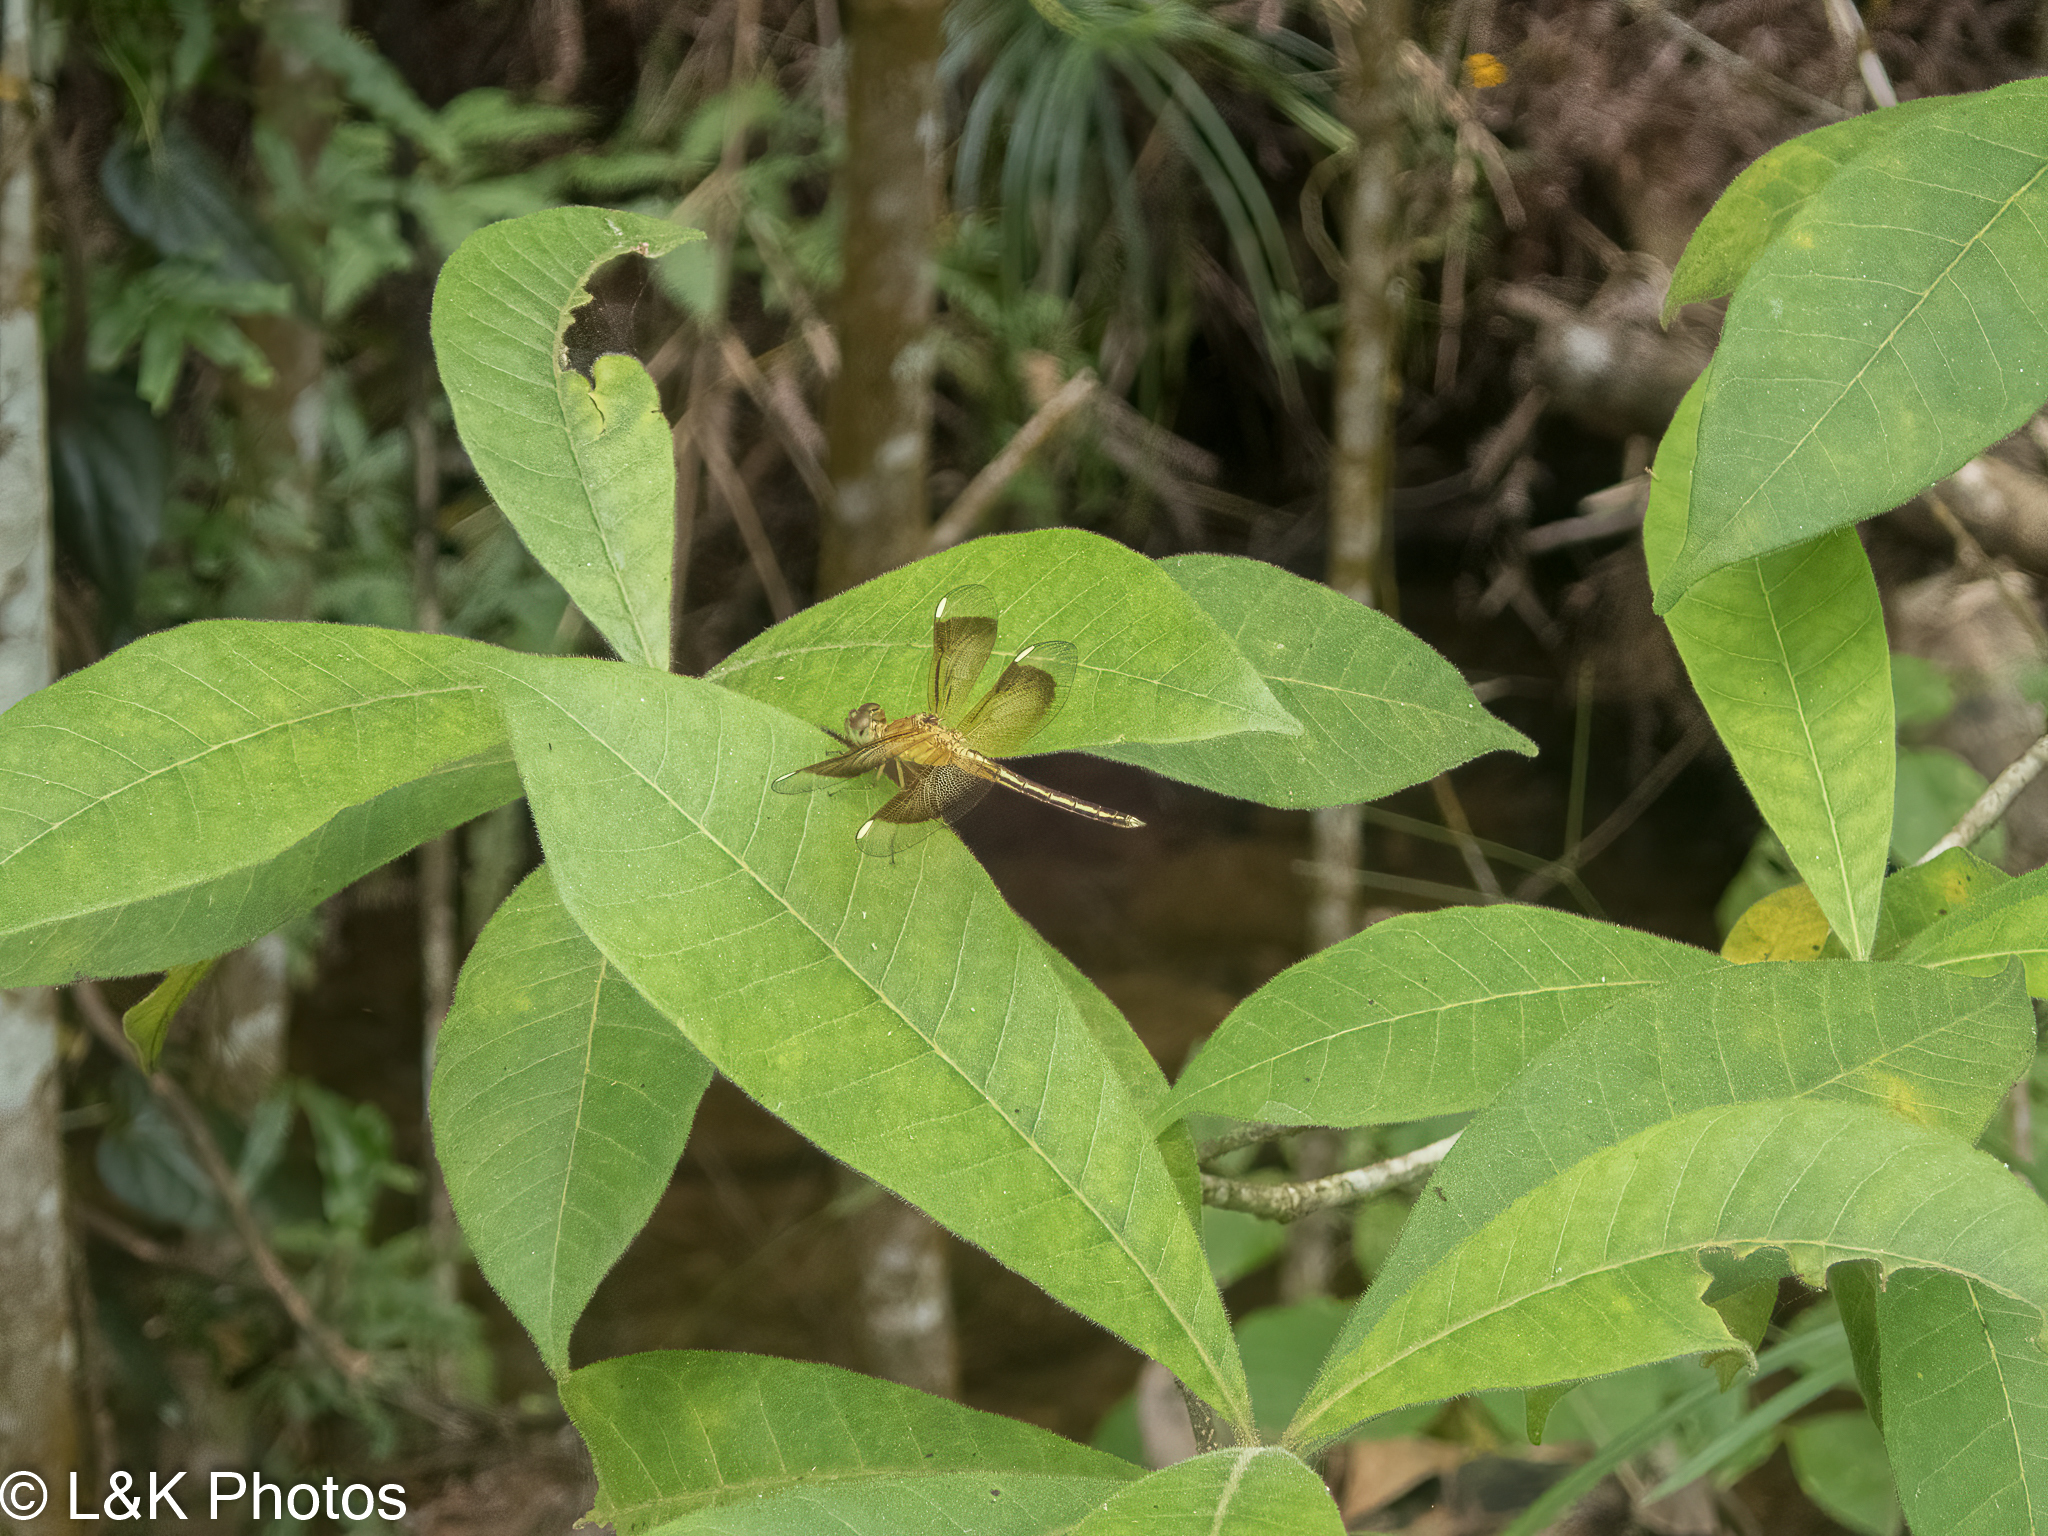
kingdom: Animalia
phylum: Arthropoda
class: Insecta
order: Odonata
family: Libellulidae
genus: Neurothemis
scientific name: Neurothemis stigmatizans
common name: Painted grasshawk
